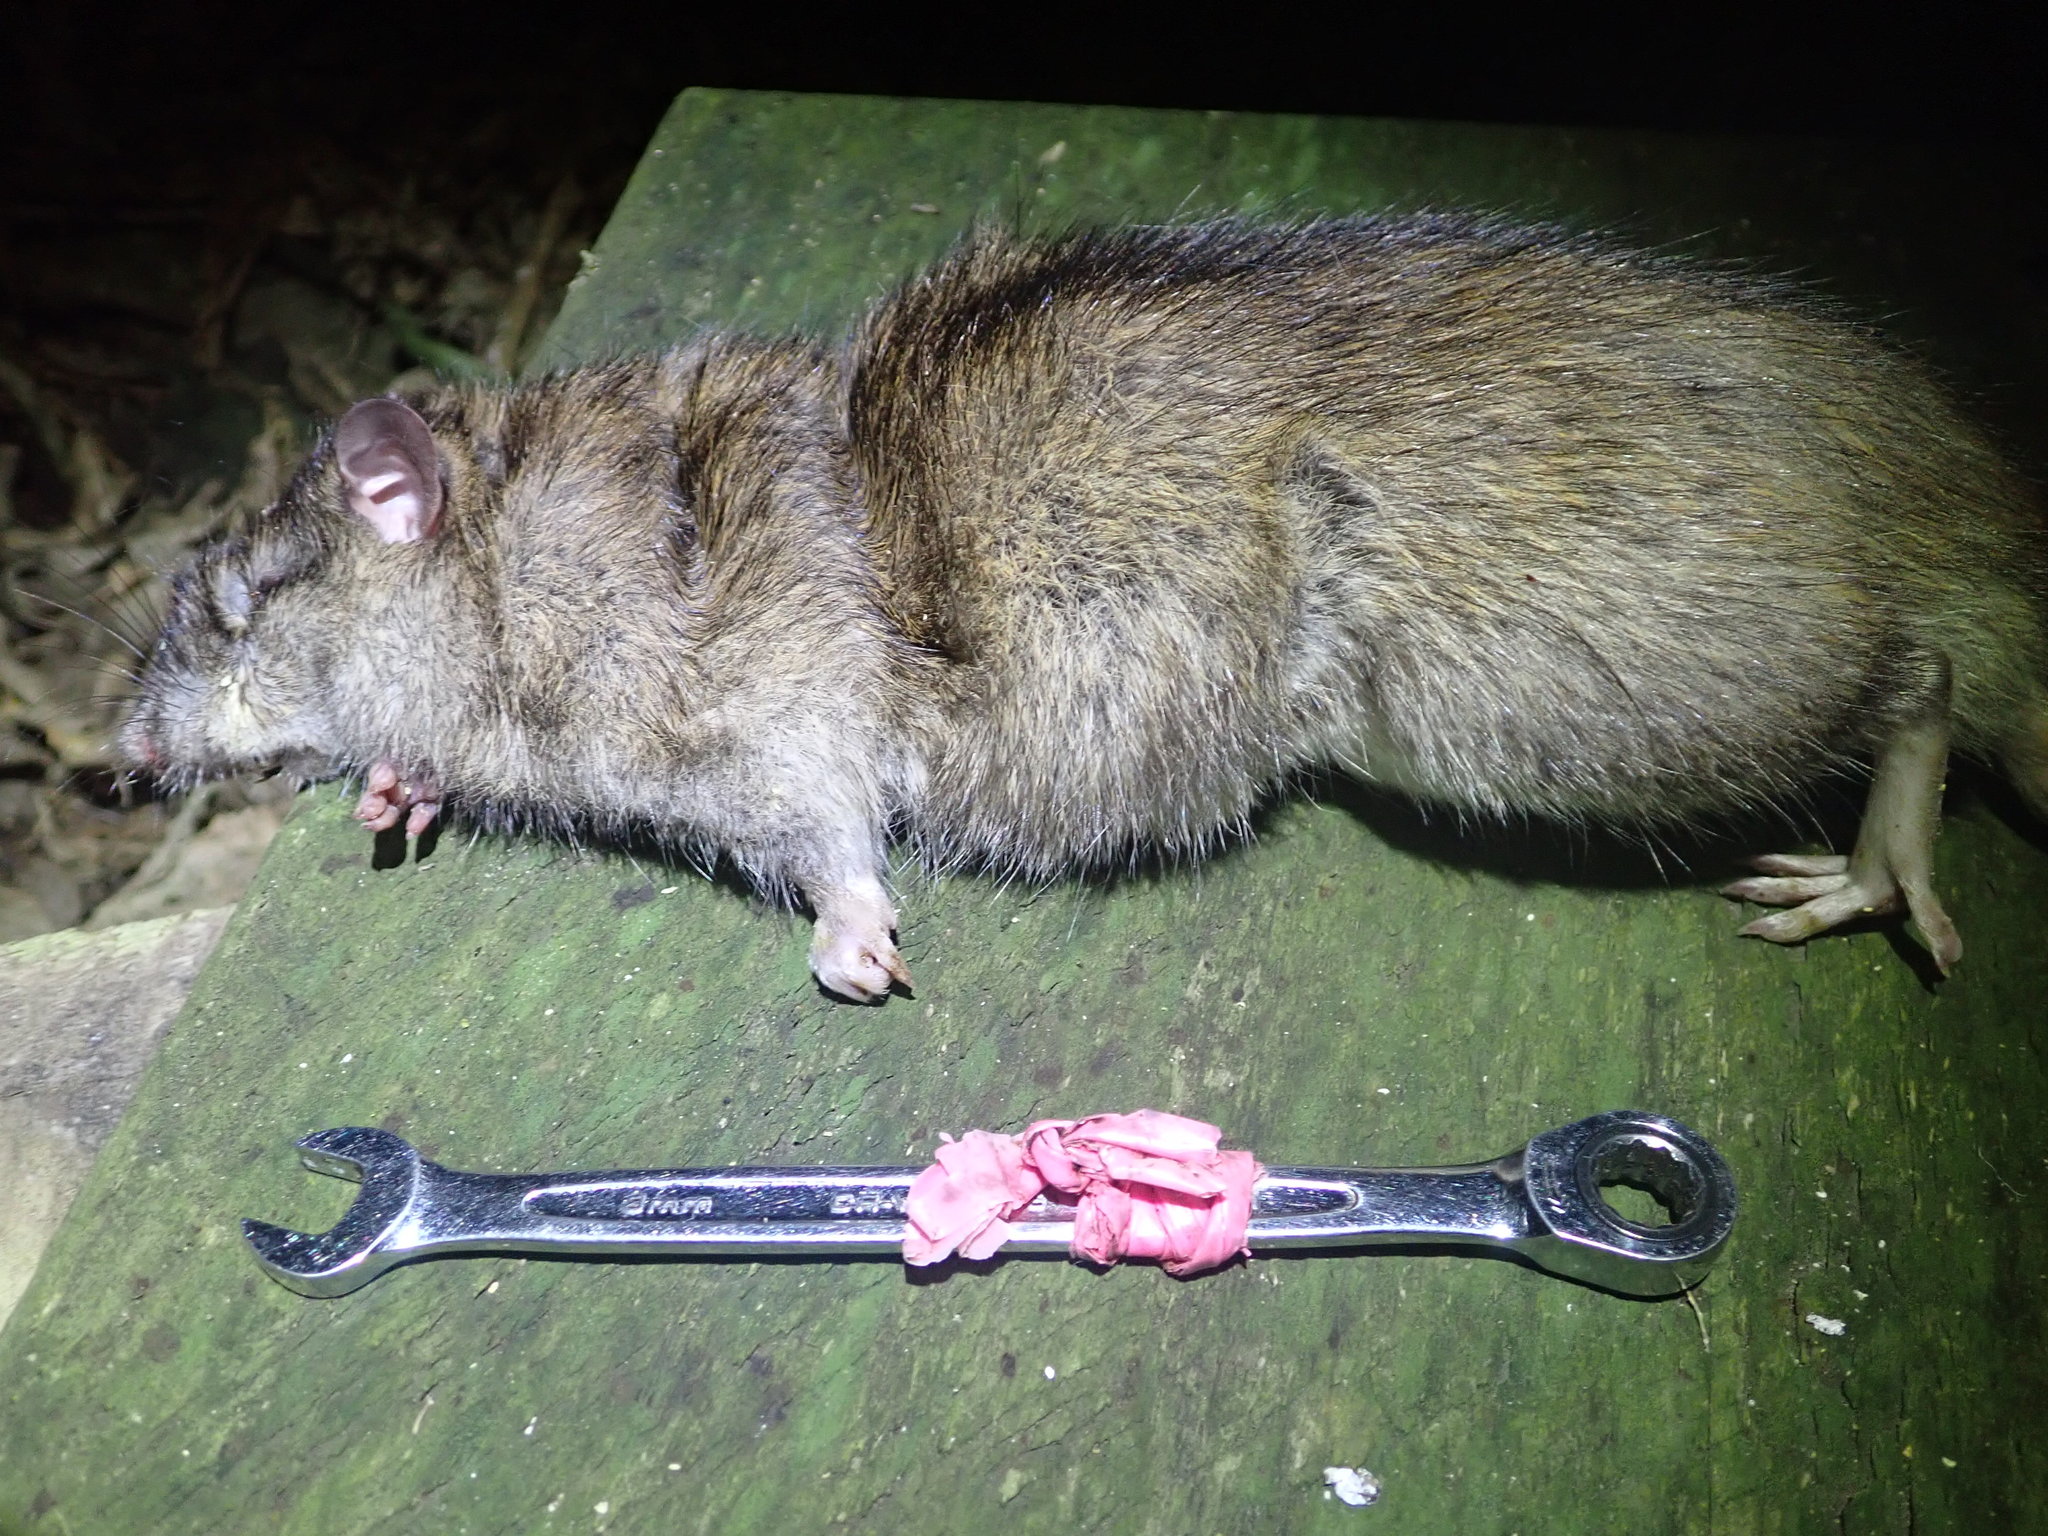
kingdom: Animalia
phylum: Chordata
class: Mammalia
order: Rodentia
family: Muridae
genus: Rattus
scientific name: Rattus norvegicus
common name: Brown rat
